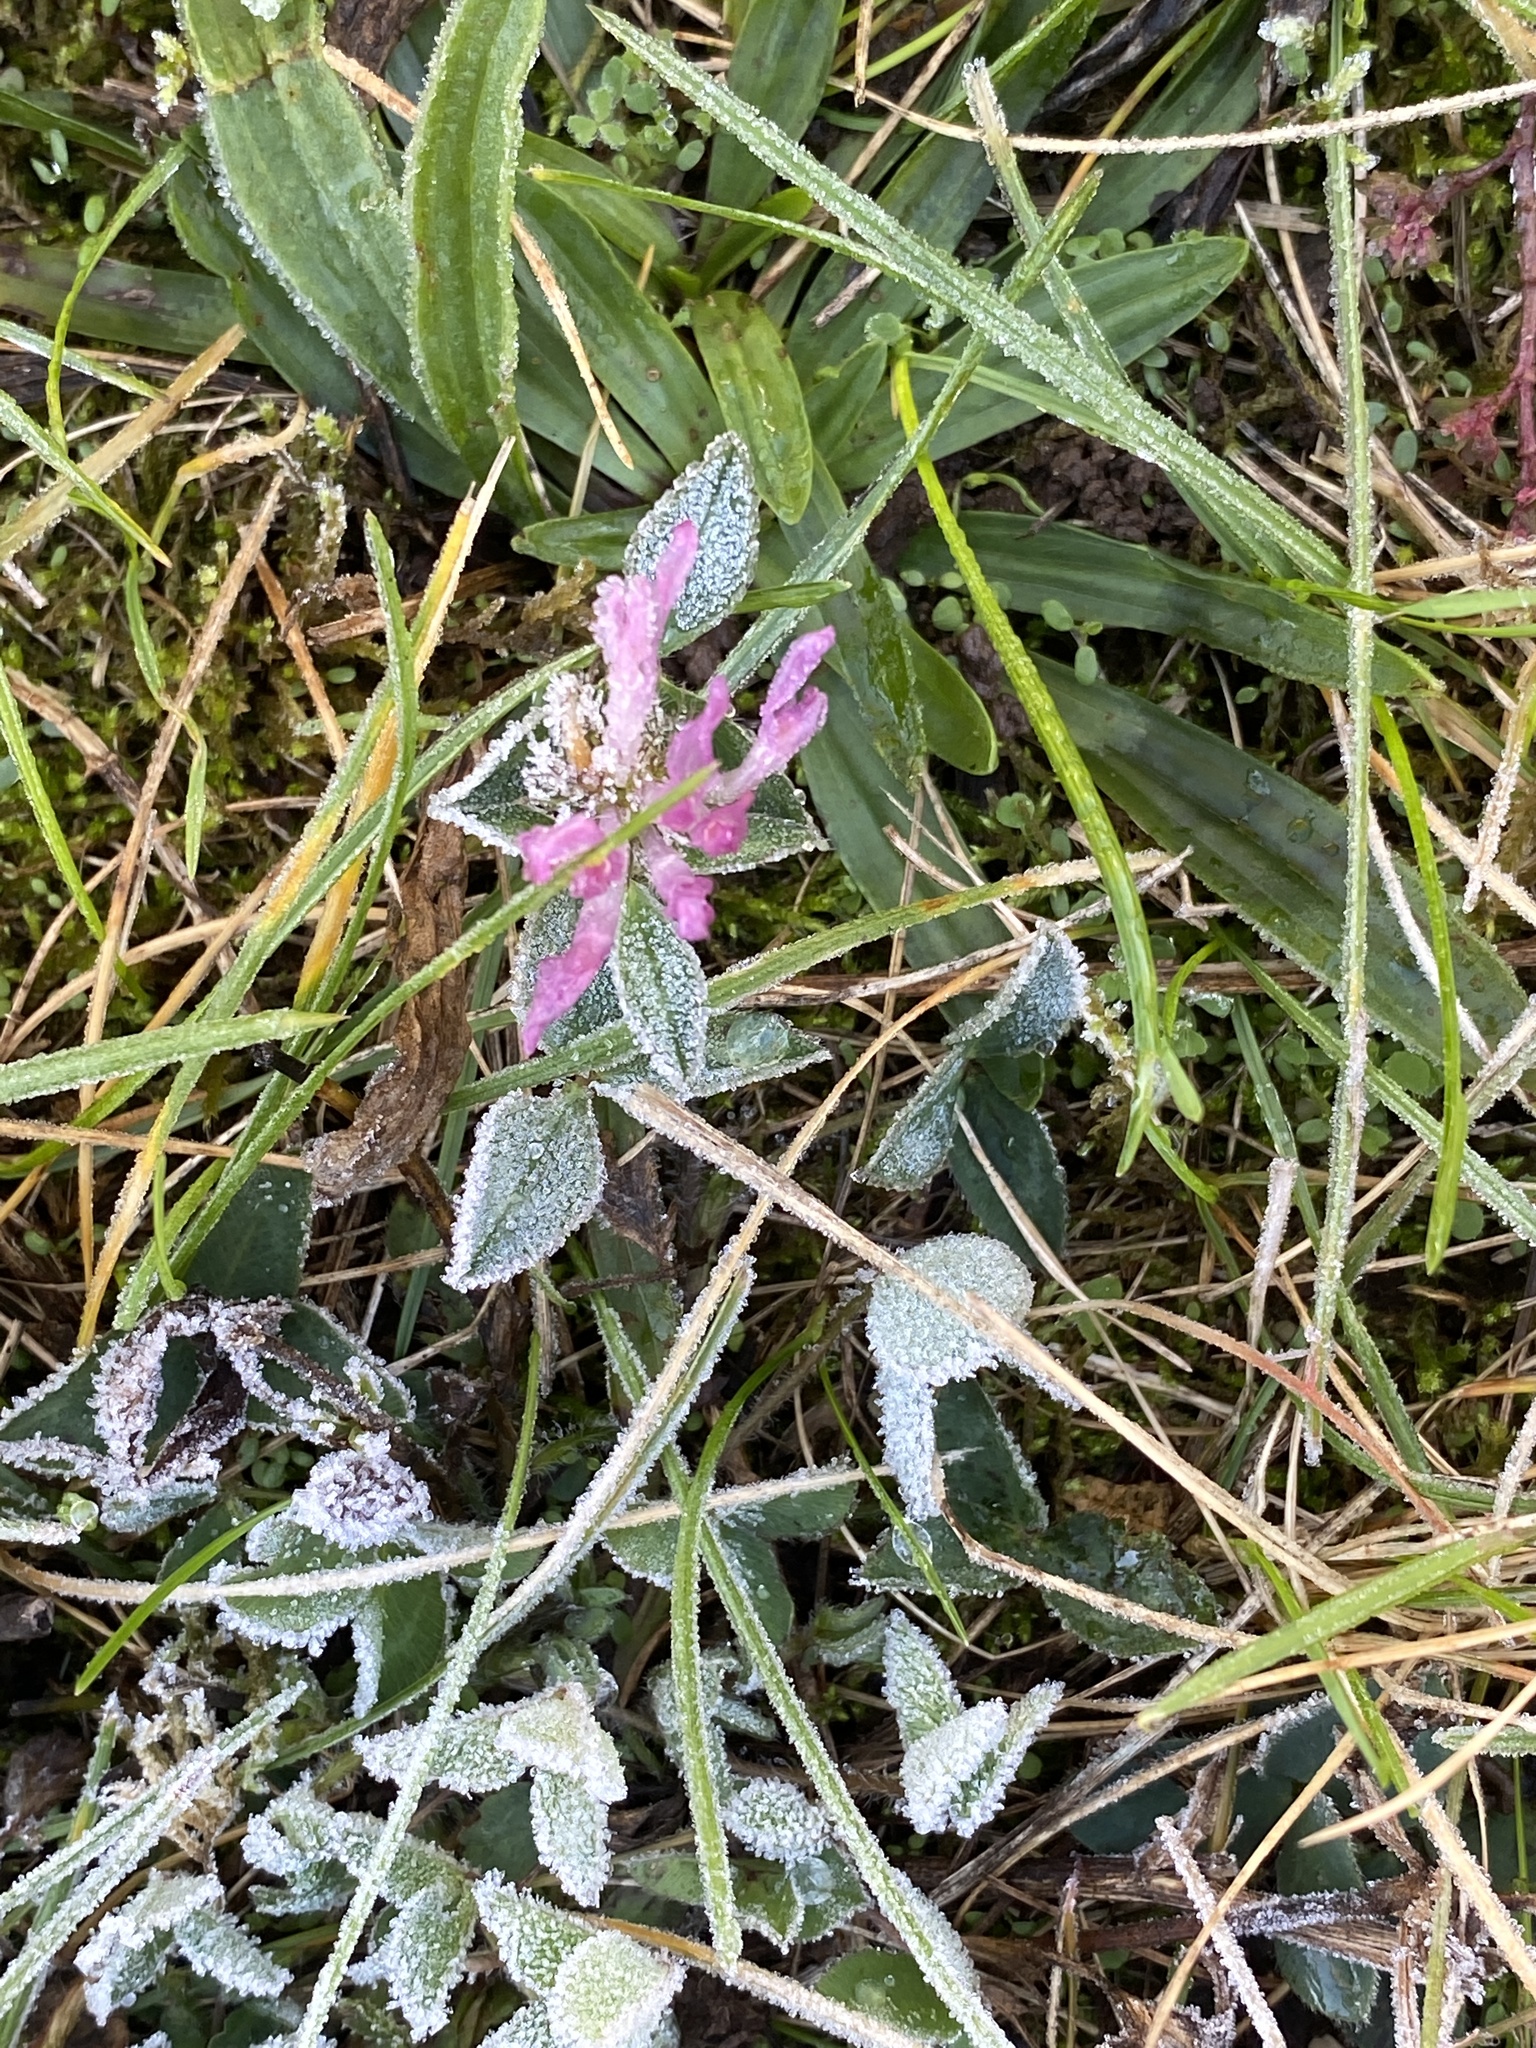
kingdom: Plantae
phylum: Tracheophyta
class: Magnoliopsida
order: Fabales
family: Fabaceae
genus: Trifolium
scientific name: Trifolium pratense
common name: Red clover
